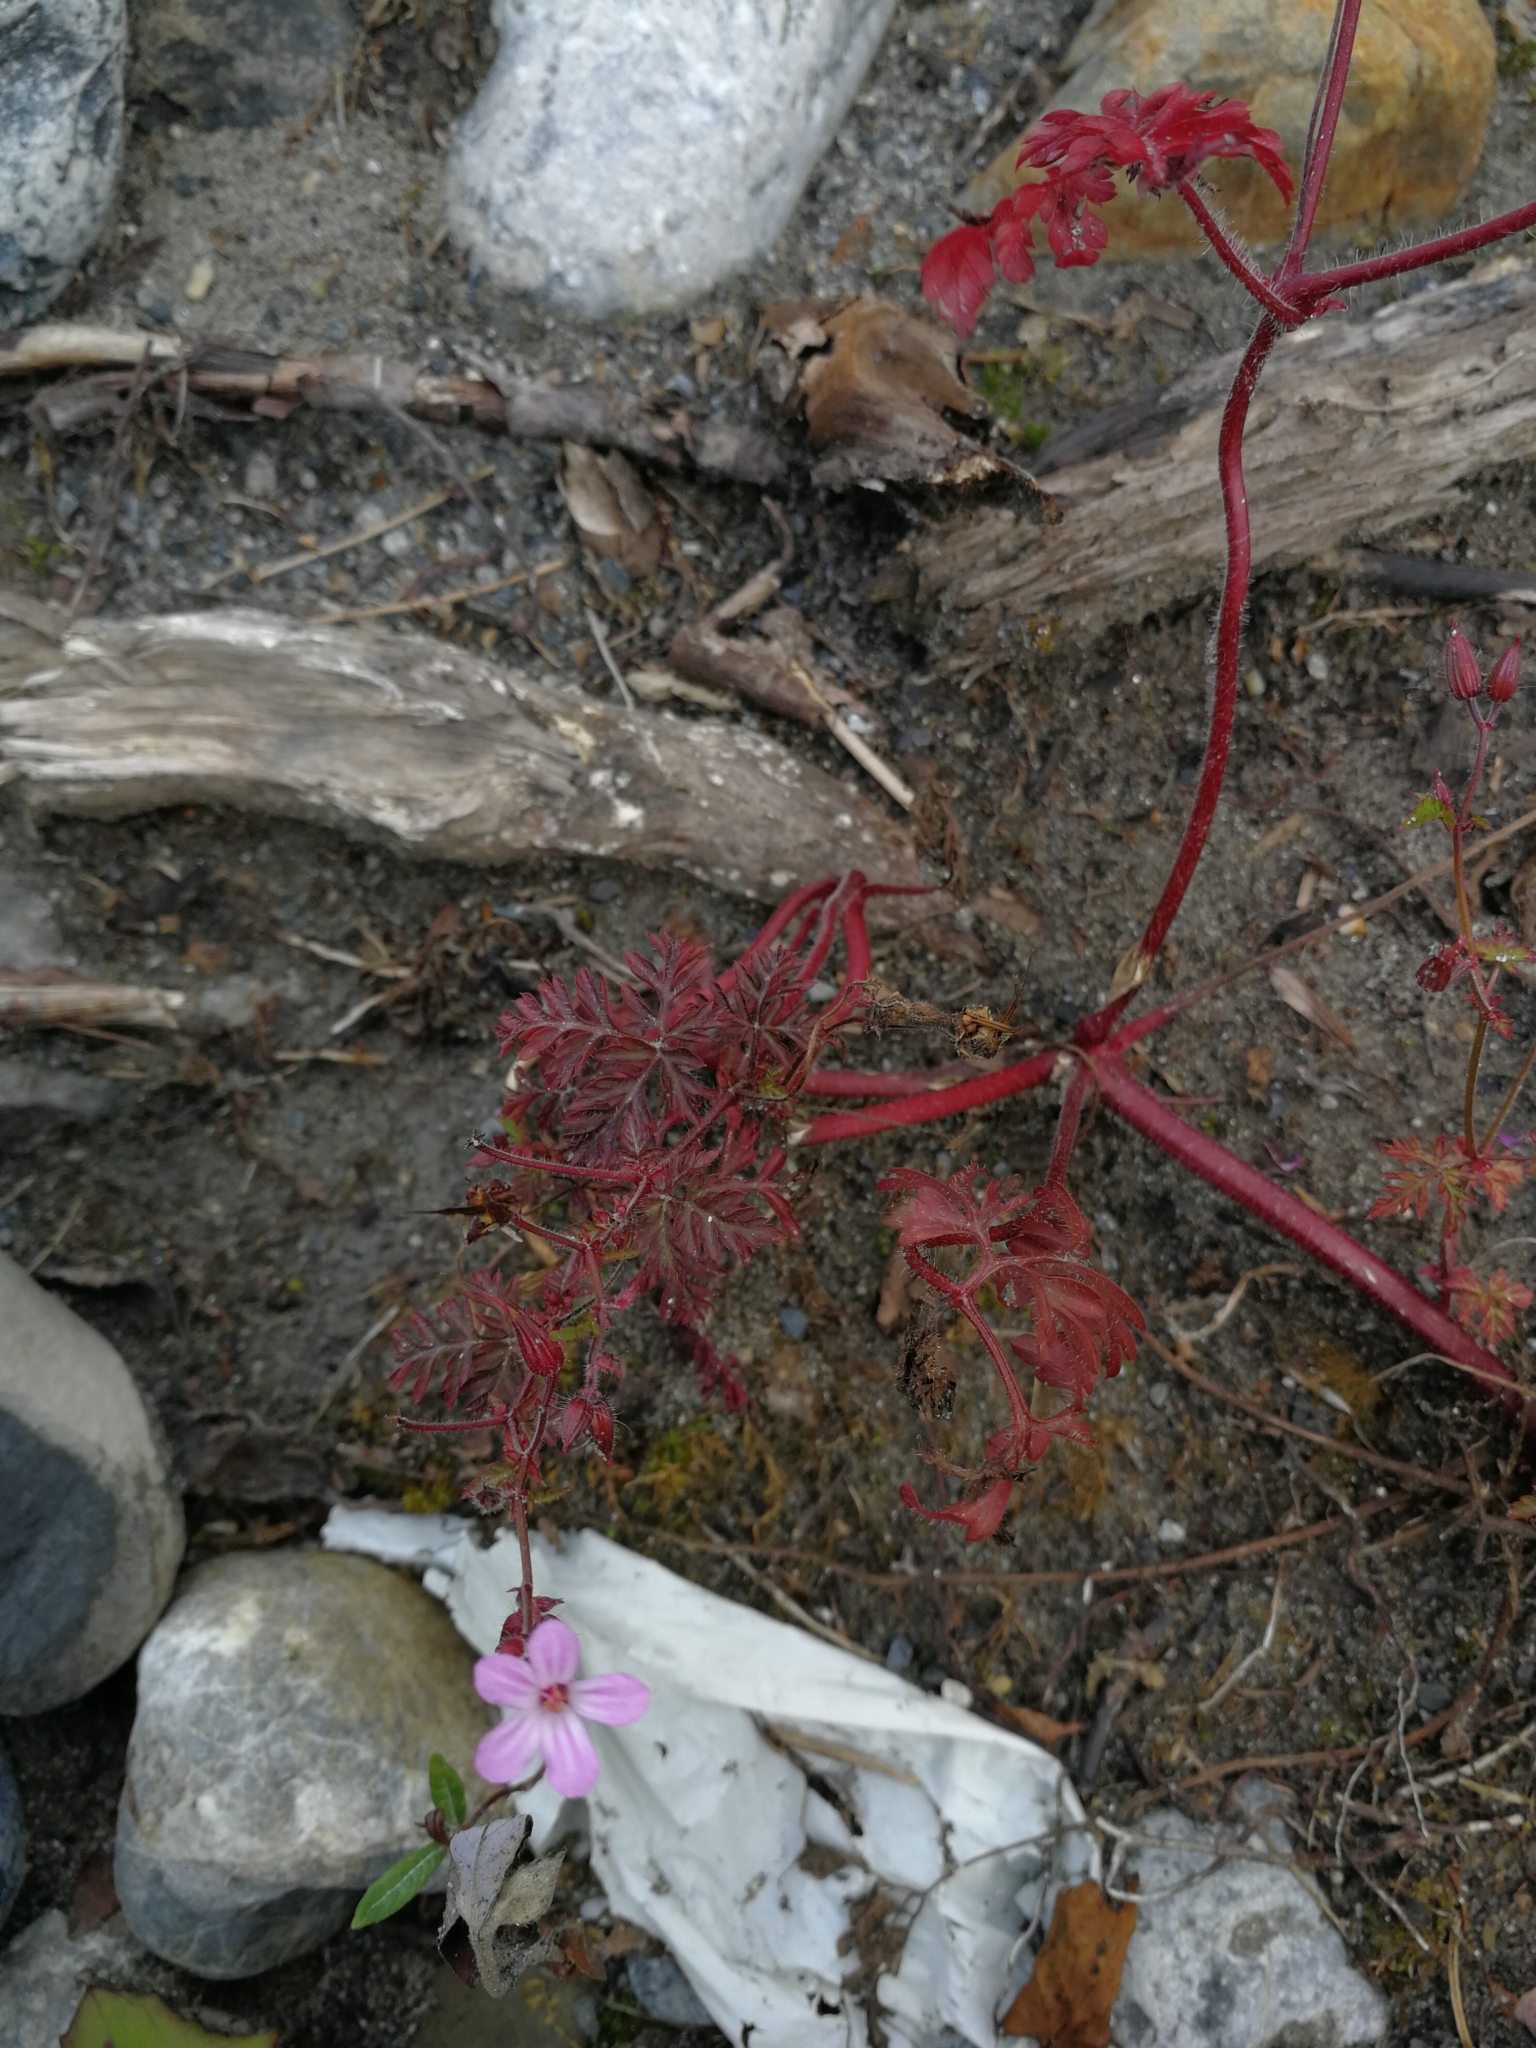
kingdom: Plantae
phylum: Tracheophyta
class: Magnoliopsida
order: Geraniales
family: Geraniaceae
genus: Geranium
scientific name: Geranium robertianum
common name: Herb-robert
